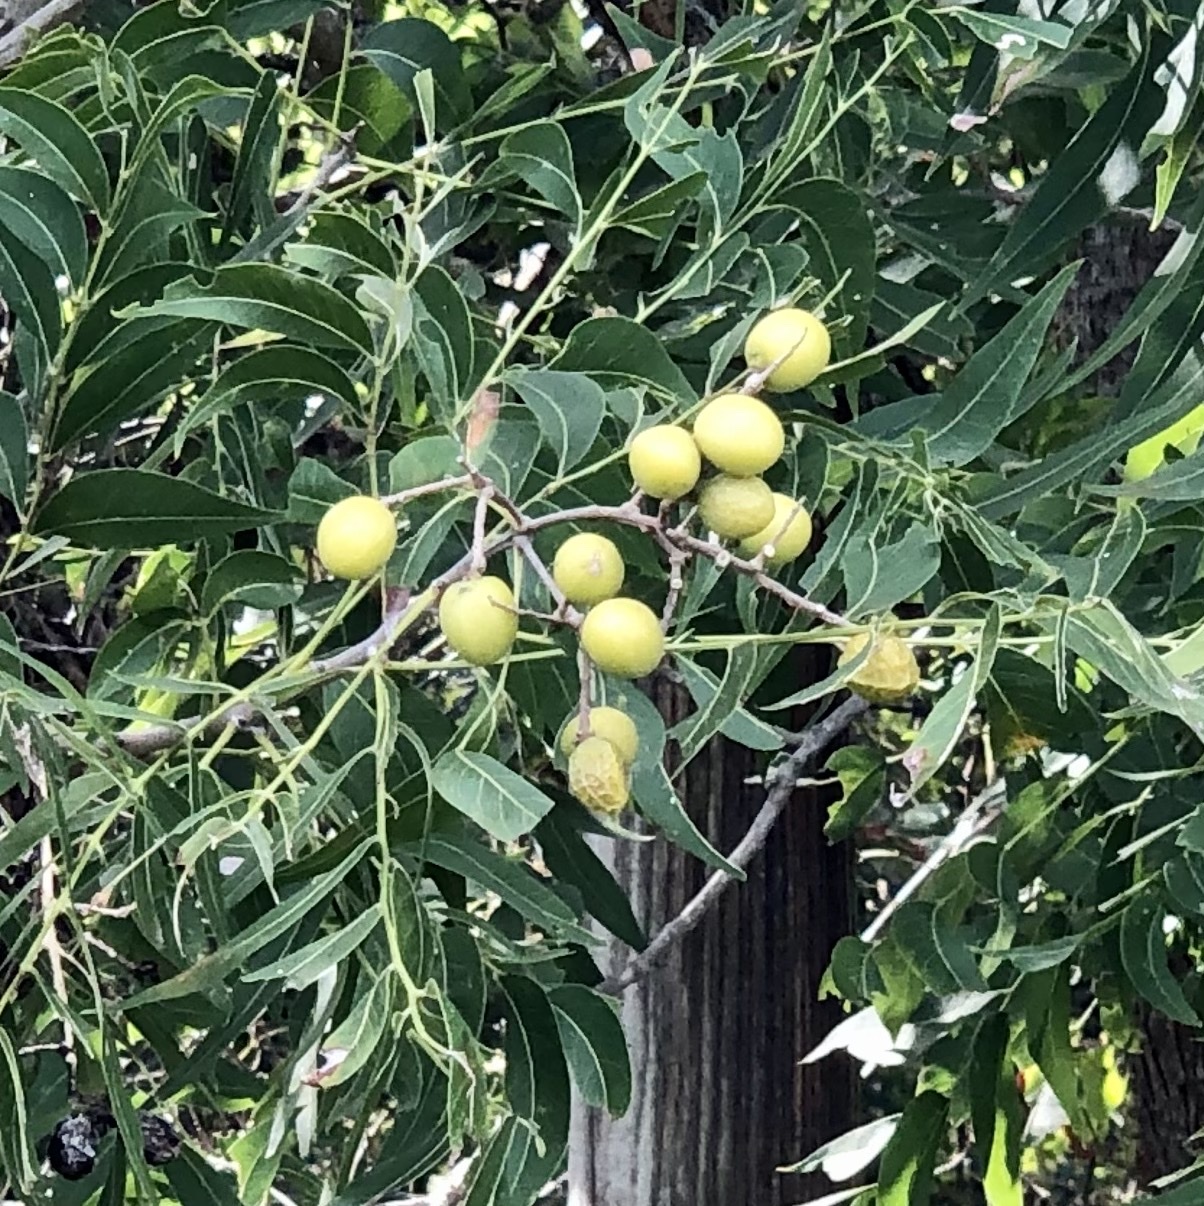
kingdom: Plantae
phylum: Tracheophyta
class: Magnoliopsida
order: Sapindales
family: Sapindaceae
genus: Sapindus
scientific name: Sapindus drummondii
